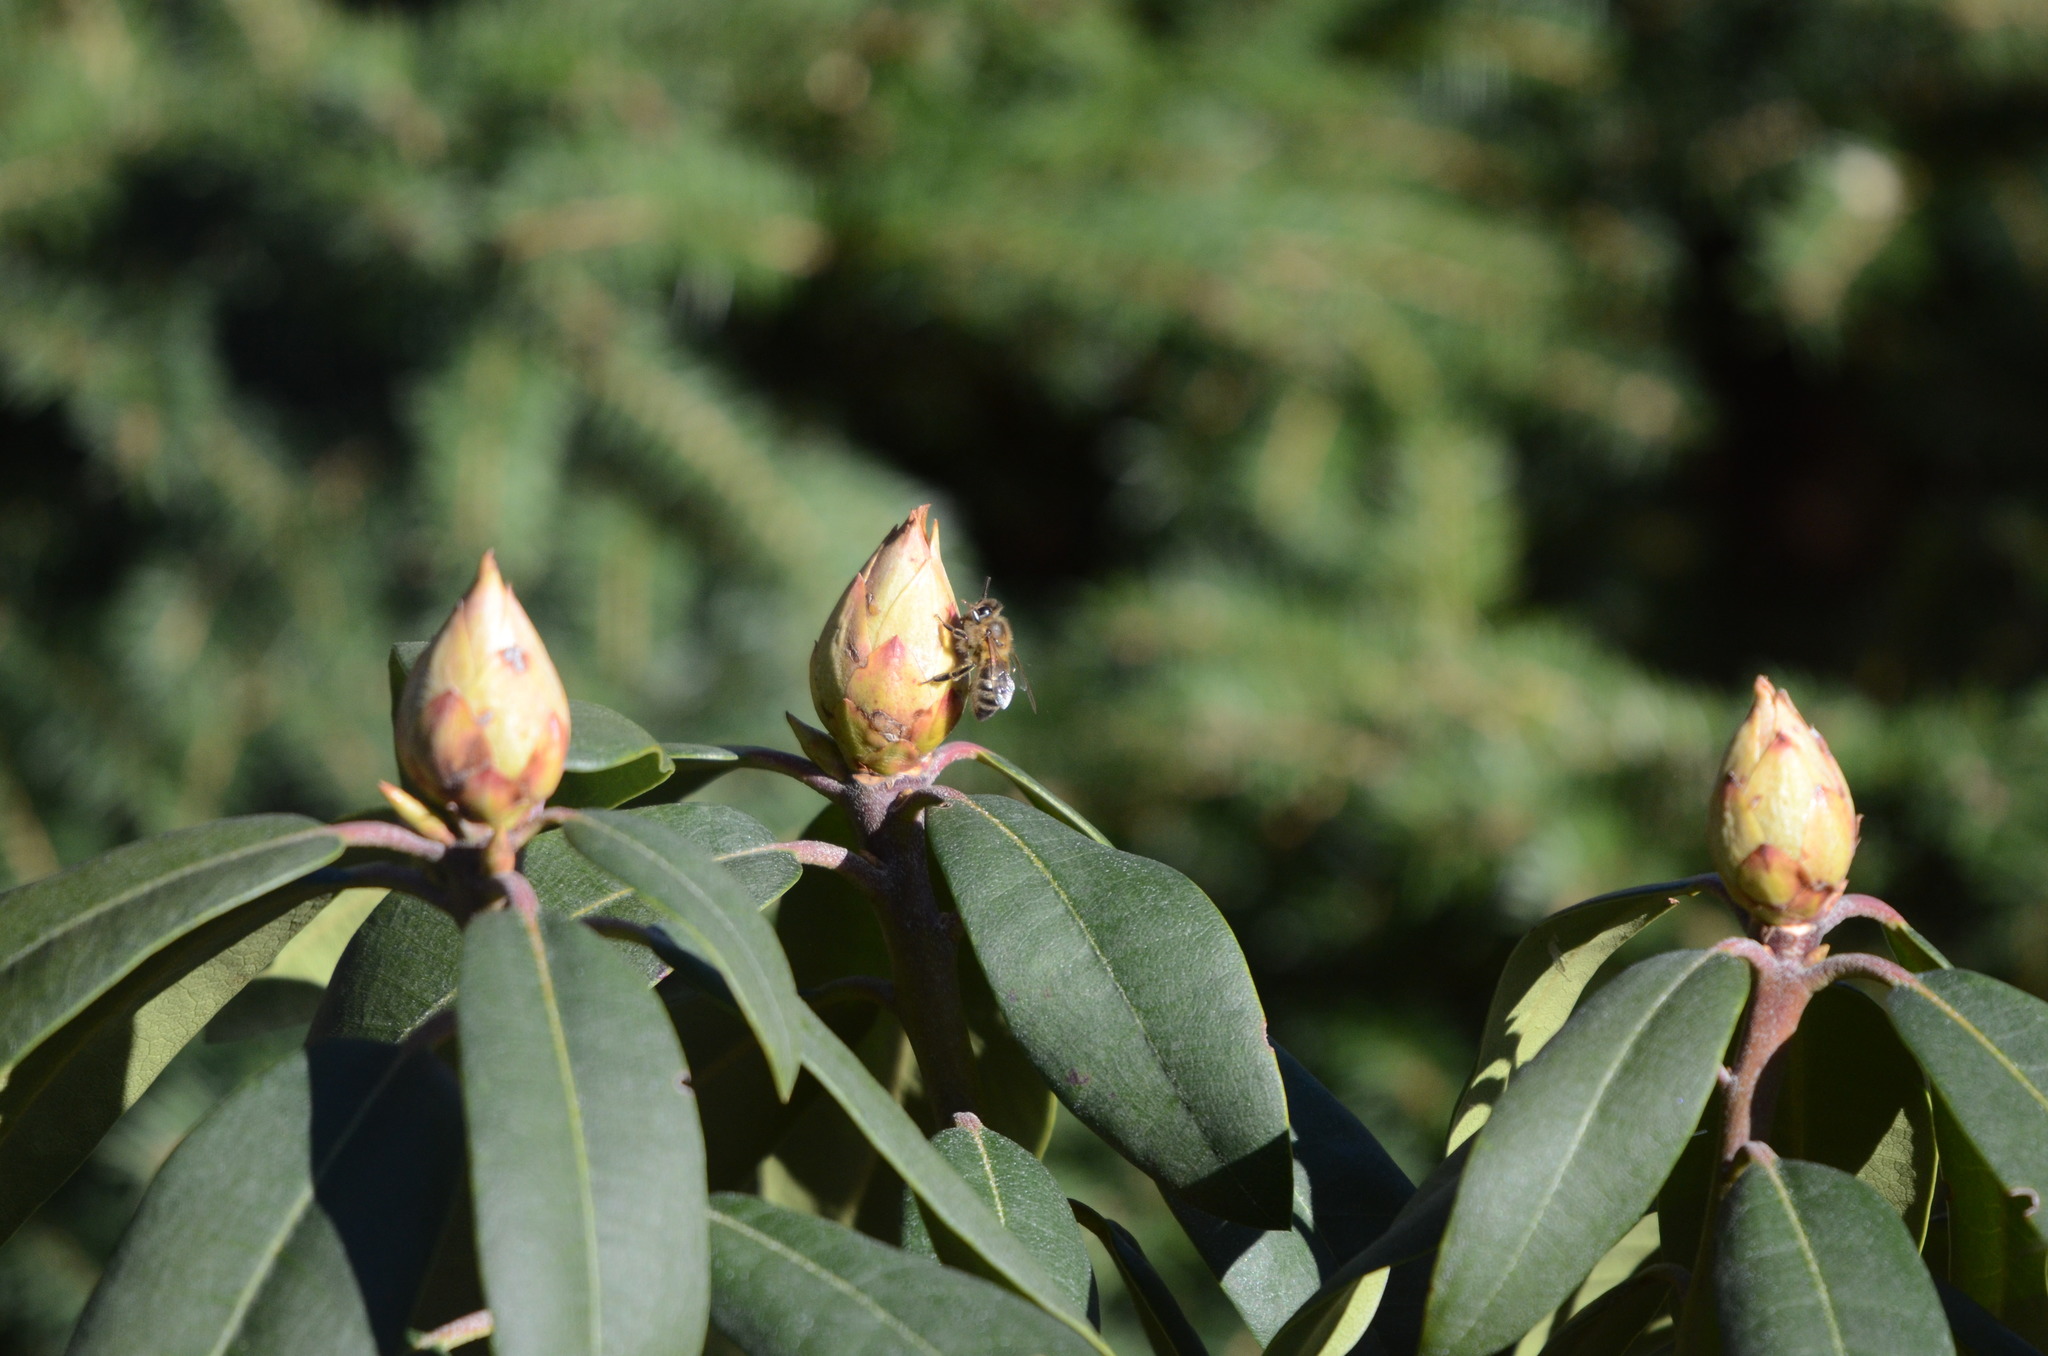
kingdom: Animalia
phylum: Arthropoda
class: Insecta
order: Hymenoptera
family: Apidae
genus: Apis
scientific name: Apis mellifera
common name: Honey bee
